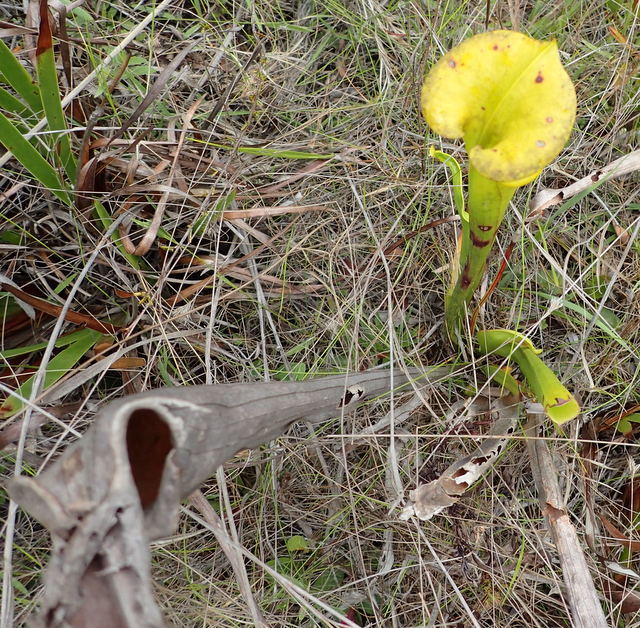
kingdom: Plantae
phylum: Tracheophyta
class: Magnoliopsida
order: Ericales
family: Sarraceniaceae
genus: Sarracenia
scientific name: Sarracenia flava
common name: Trumpets
